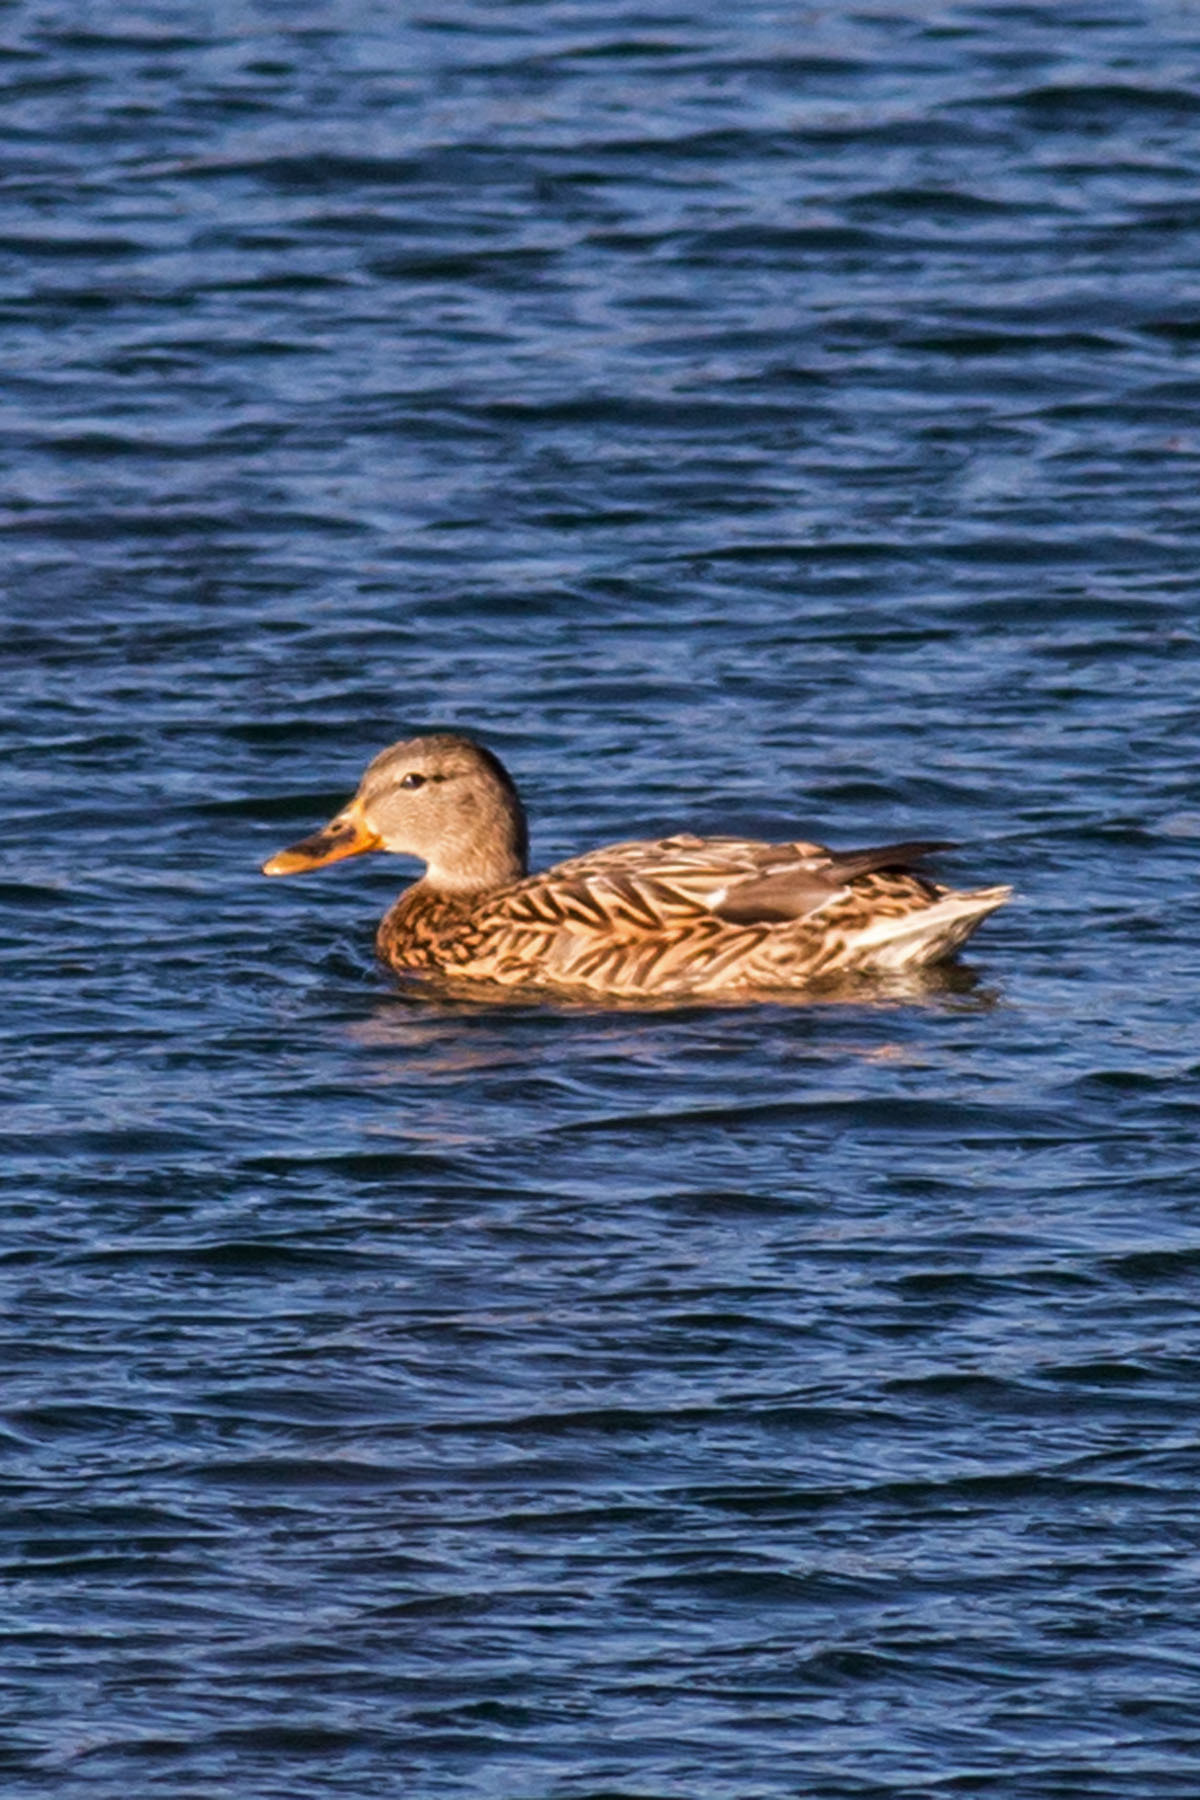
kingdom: Animalia
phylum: Chordata
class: Aves
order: Anseriformes
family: Anatidae
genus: Anas
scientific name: Anas platyrhynchos
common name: Mallard
